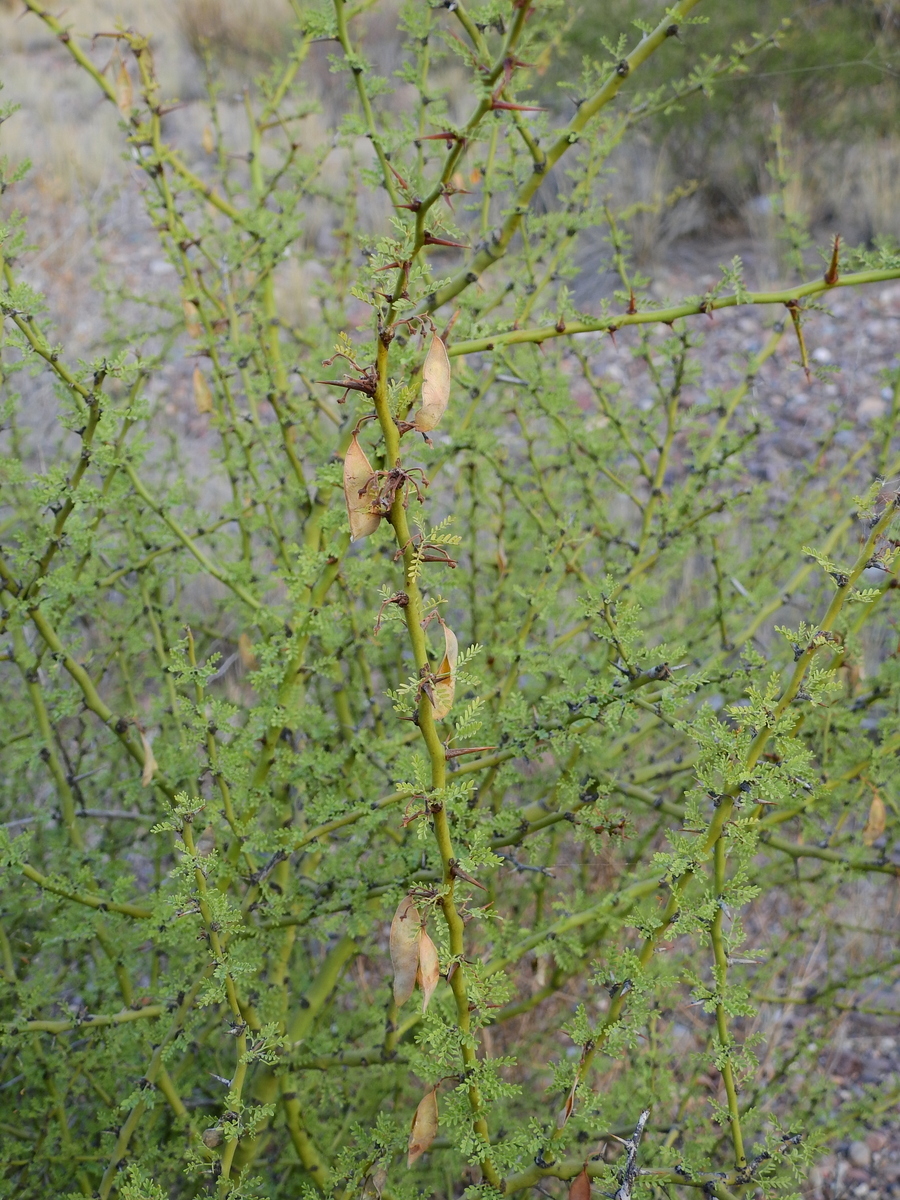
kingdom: Plantae
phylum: Tracheophyta
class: Magnoliopsida
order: Fabales
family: Fabaceae
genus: Parkinsonia
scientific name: Parkinsonia praecox
